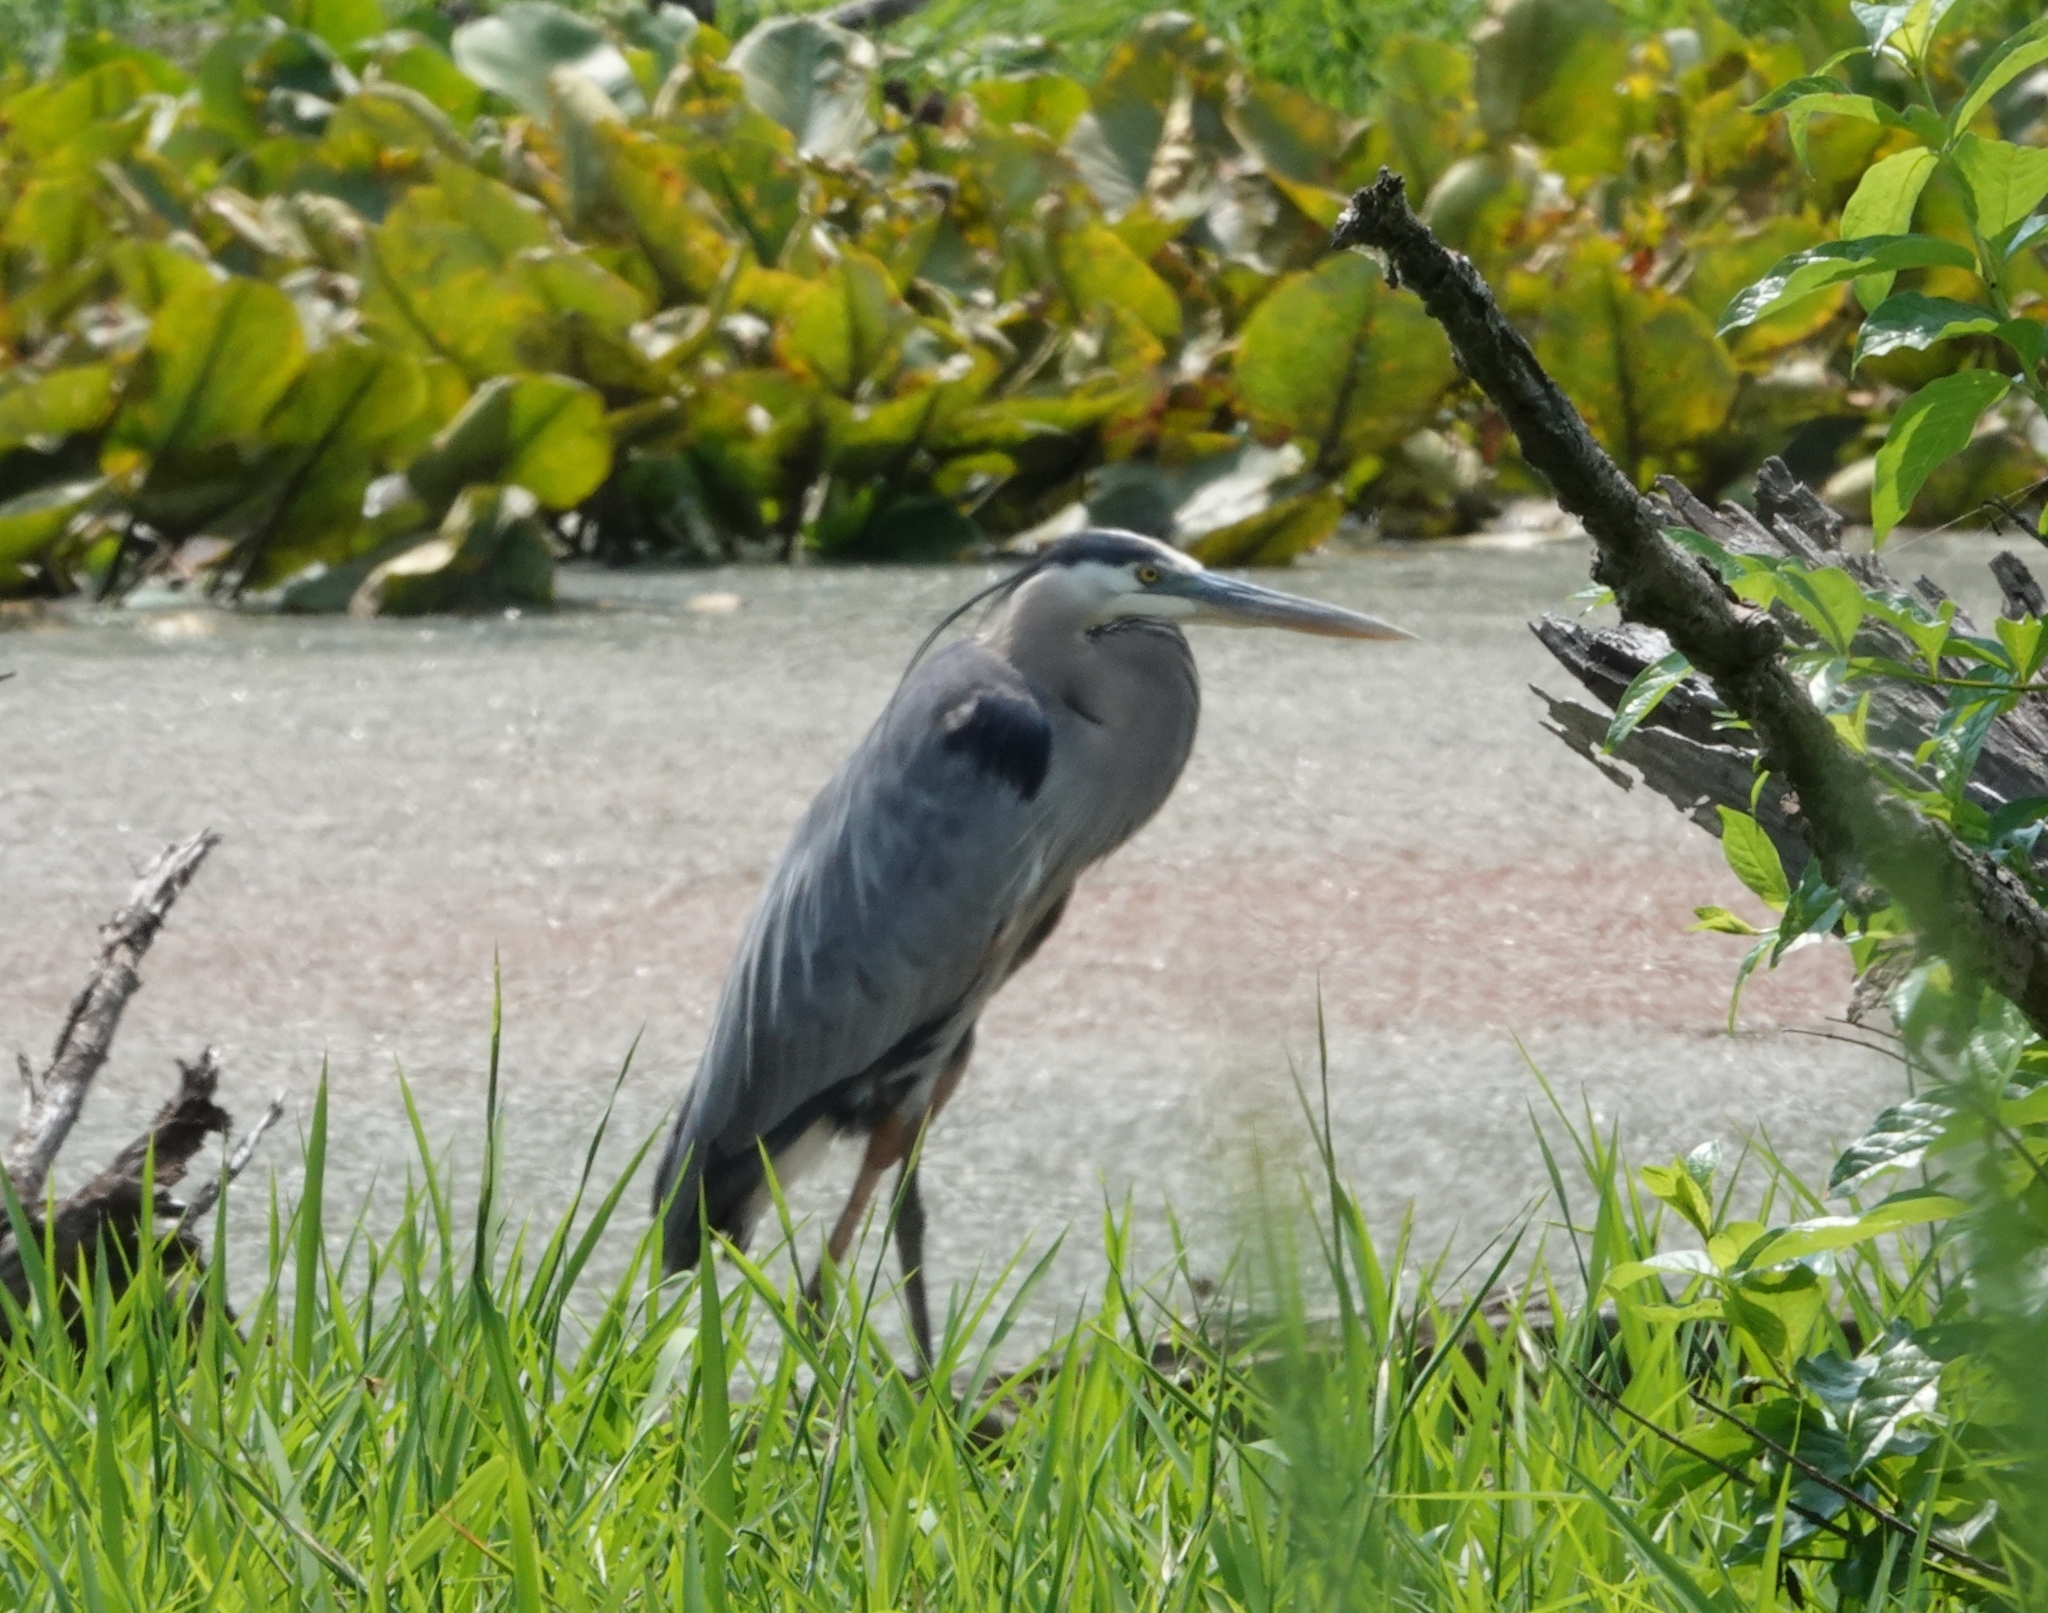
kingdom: Animalia
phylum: Chordata
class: Aves
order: Pelecaniformes
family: Ardeidae
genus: Ardea
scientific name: Ardea herodias
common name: Great blue heron
